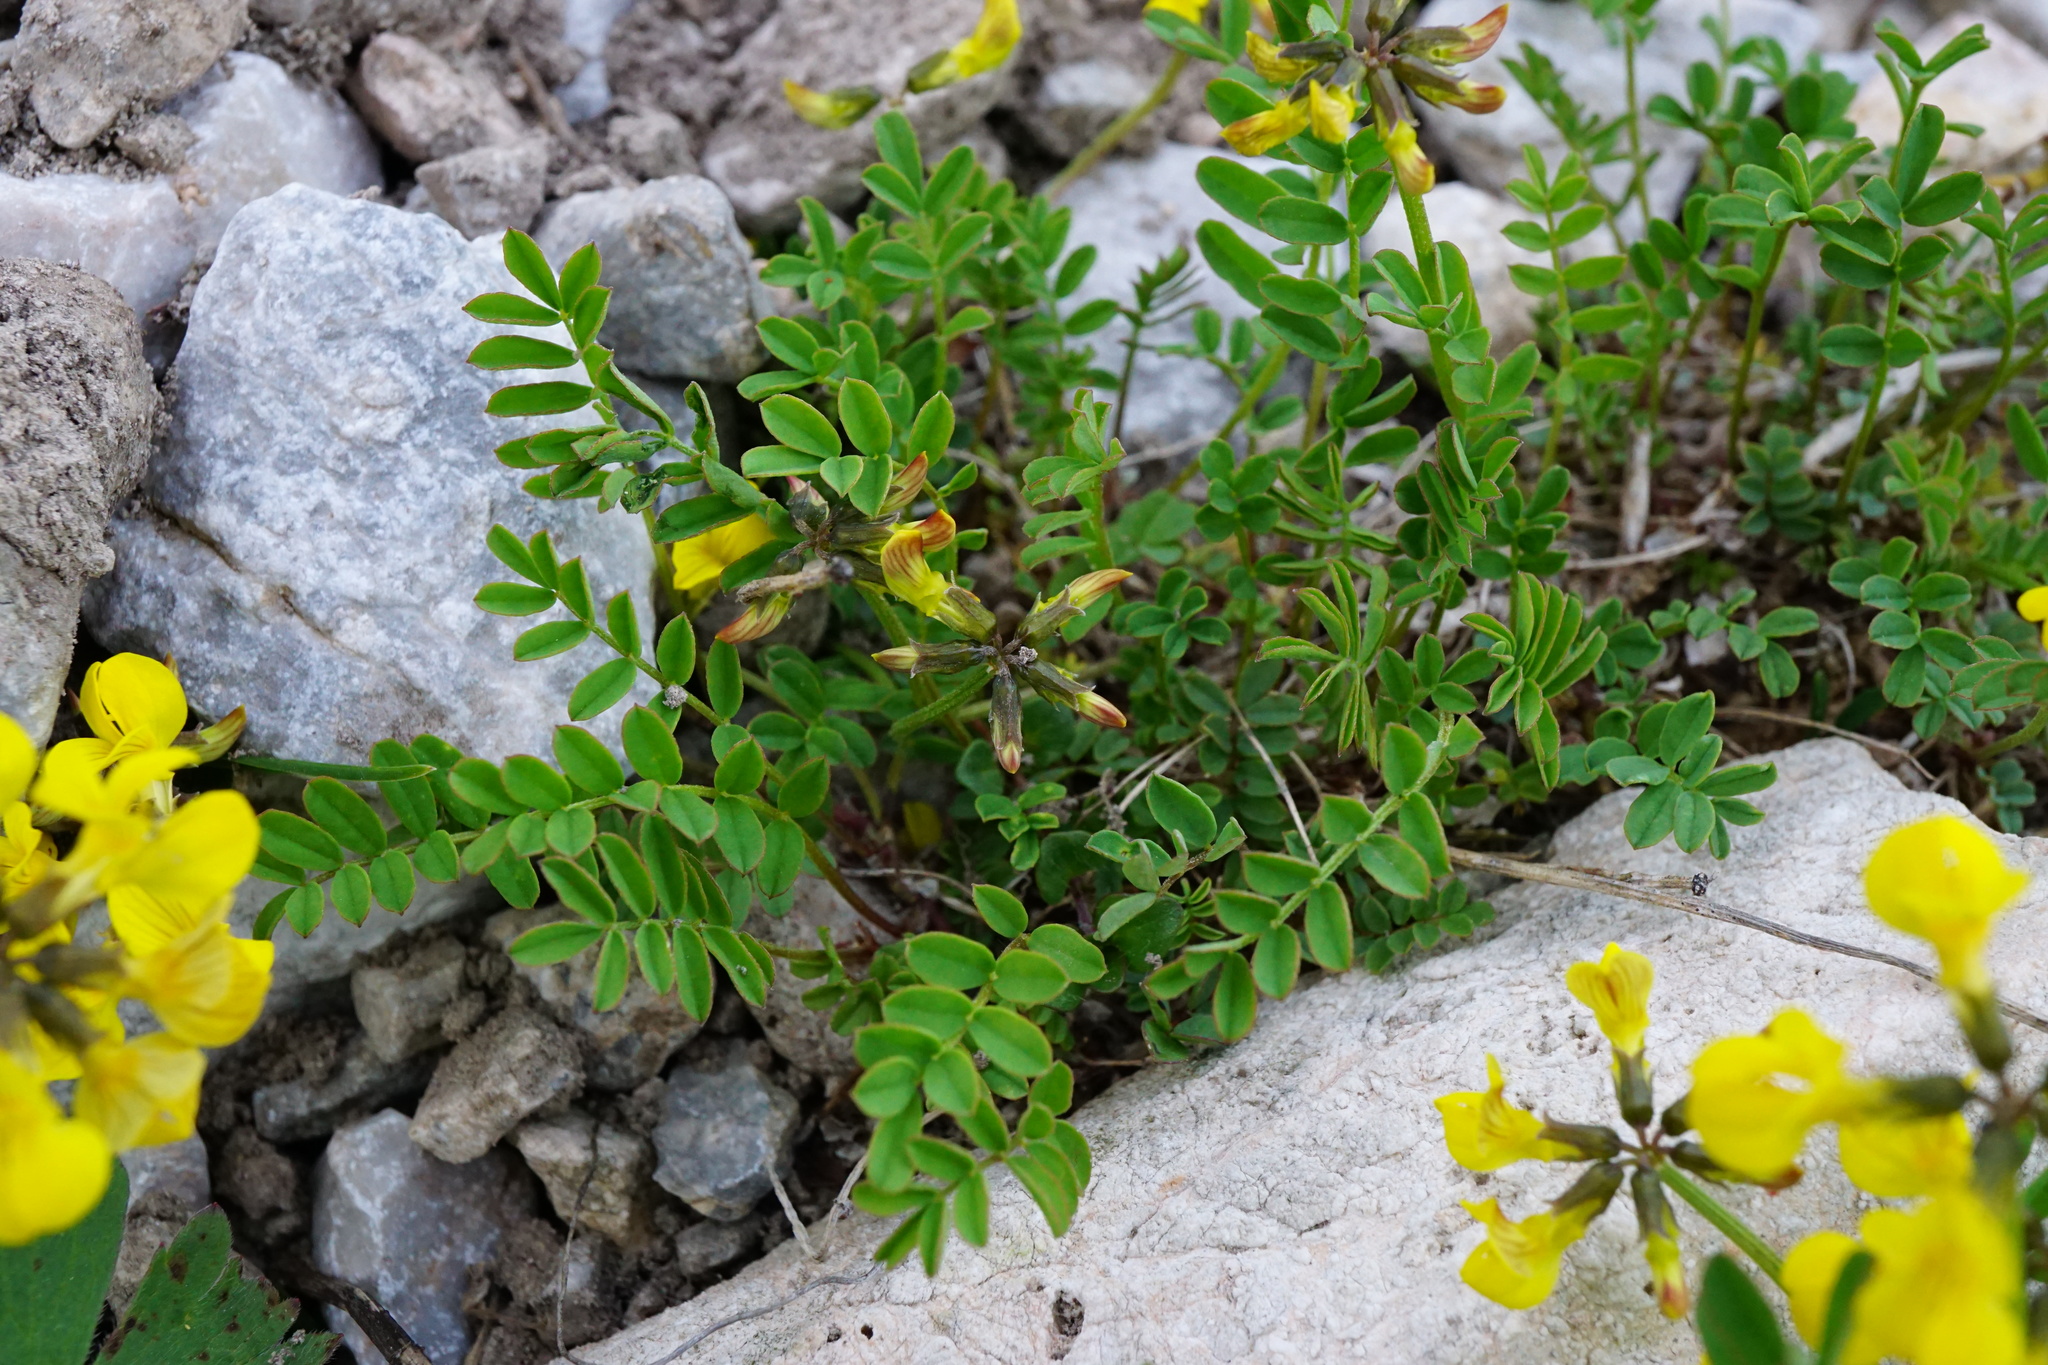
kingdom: Plantae
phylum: Tracheophyta
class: Magnoliopsida
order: Fabales
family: Fabaceae
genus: Hippocrepis
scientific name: Hippocrepis comosa
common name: Horseshoe vetch
